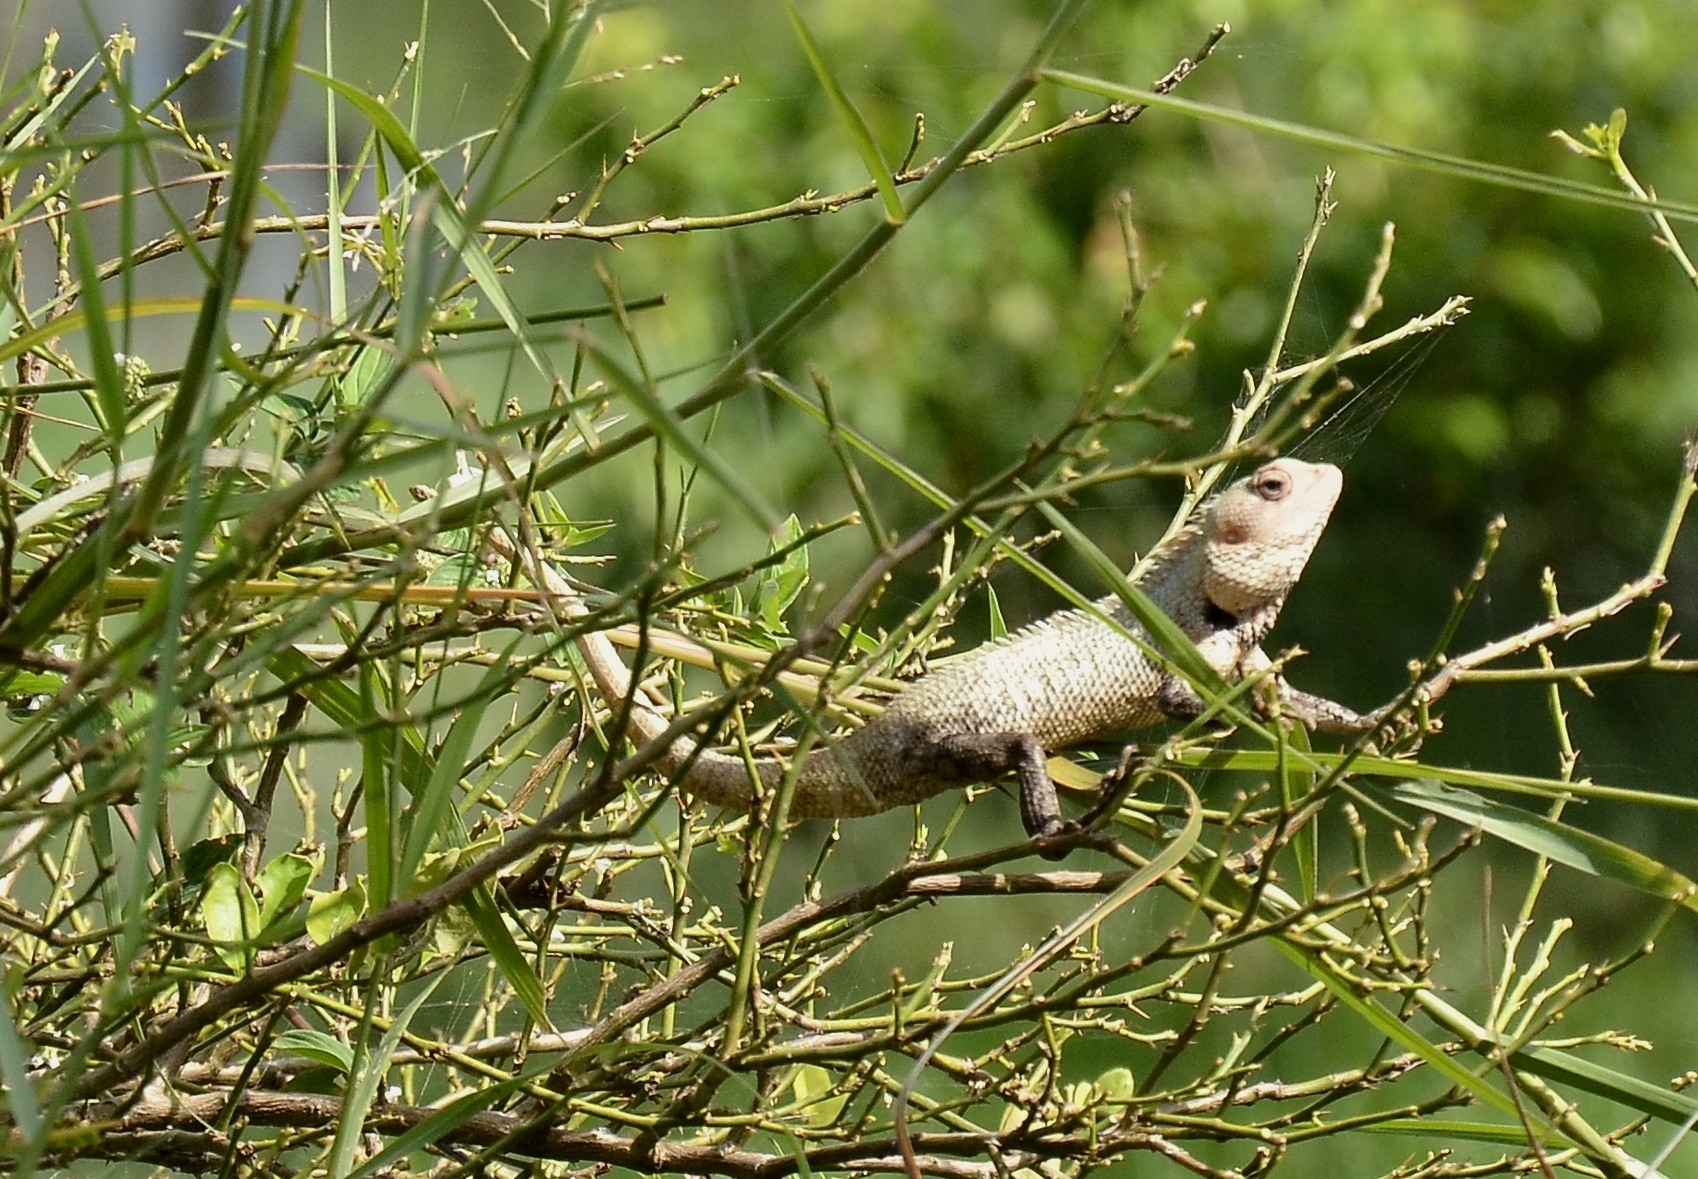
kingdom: Animalia
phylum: Chordata
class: Squamata
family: Agamidae
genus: Calotes
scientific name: Calotes versicolor
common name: Oriental garden lizard
